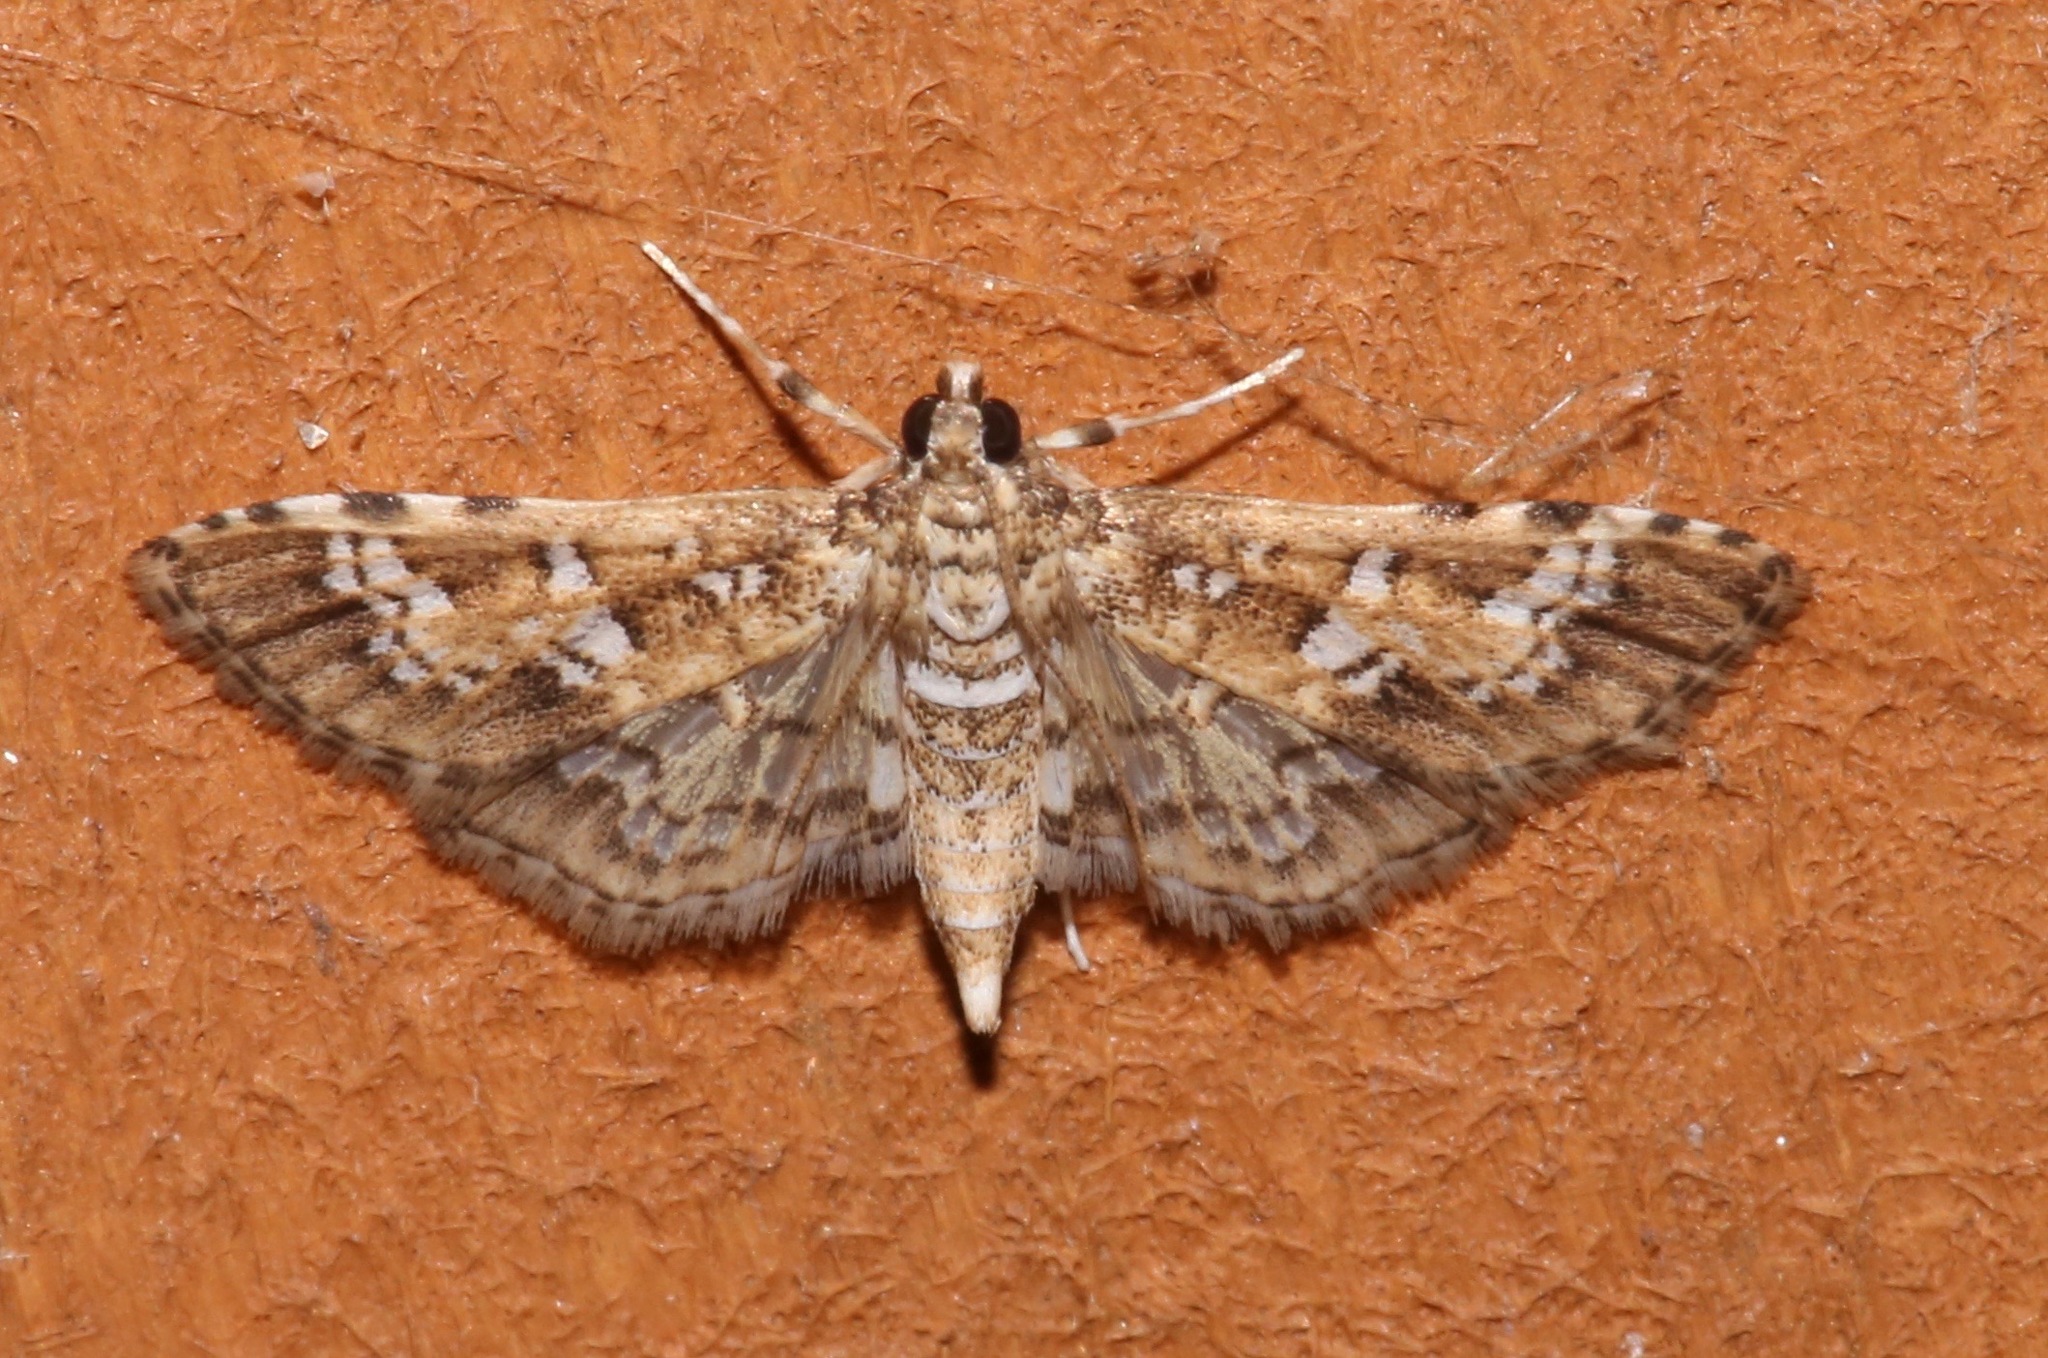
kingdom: Animalia
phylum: Arthropoda
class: Insecta
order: Lepidoptera
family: Crambidae
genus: Samea
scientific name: Samea multiplicalis
